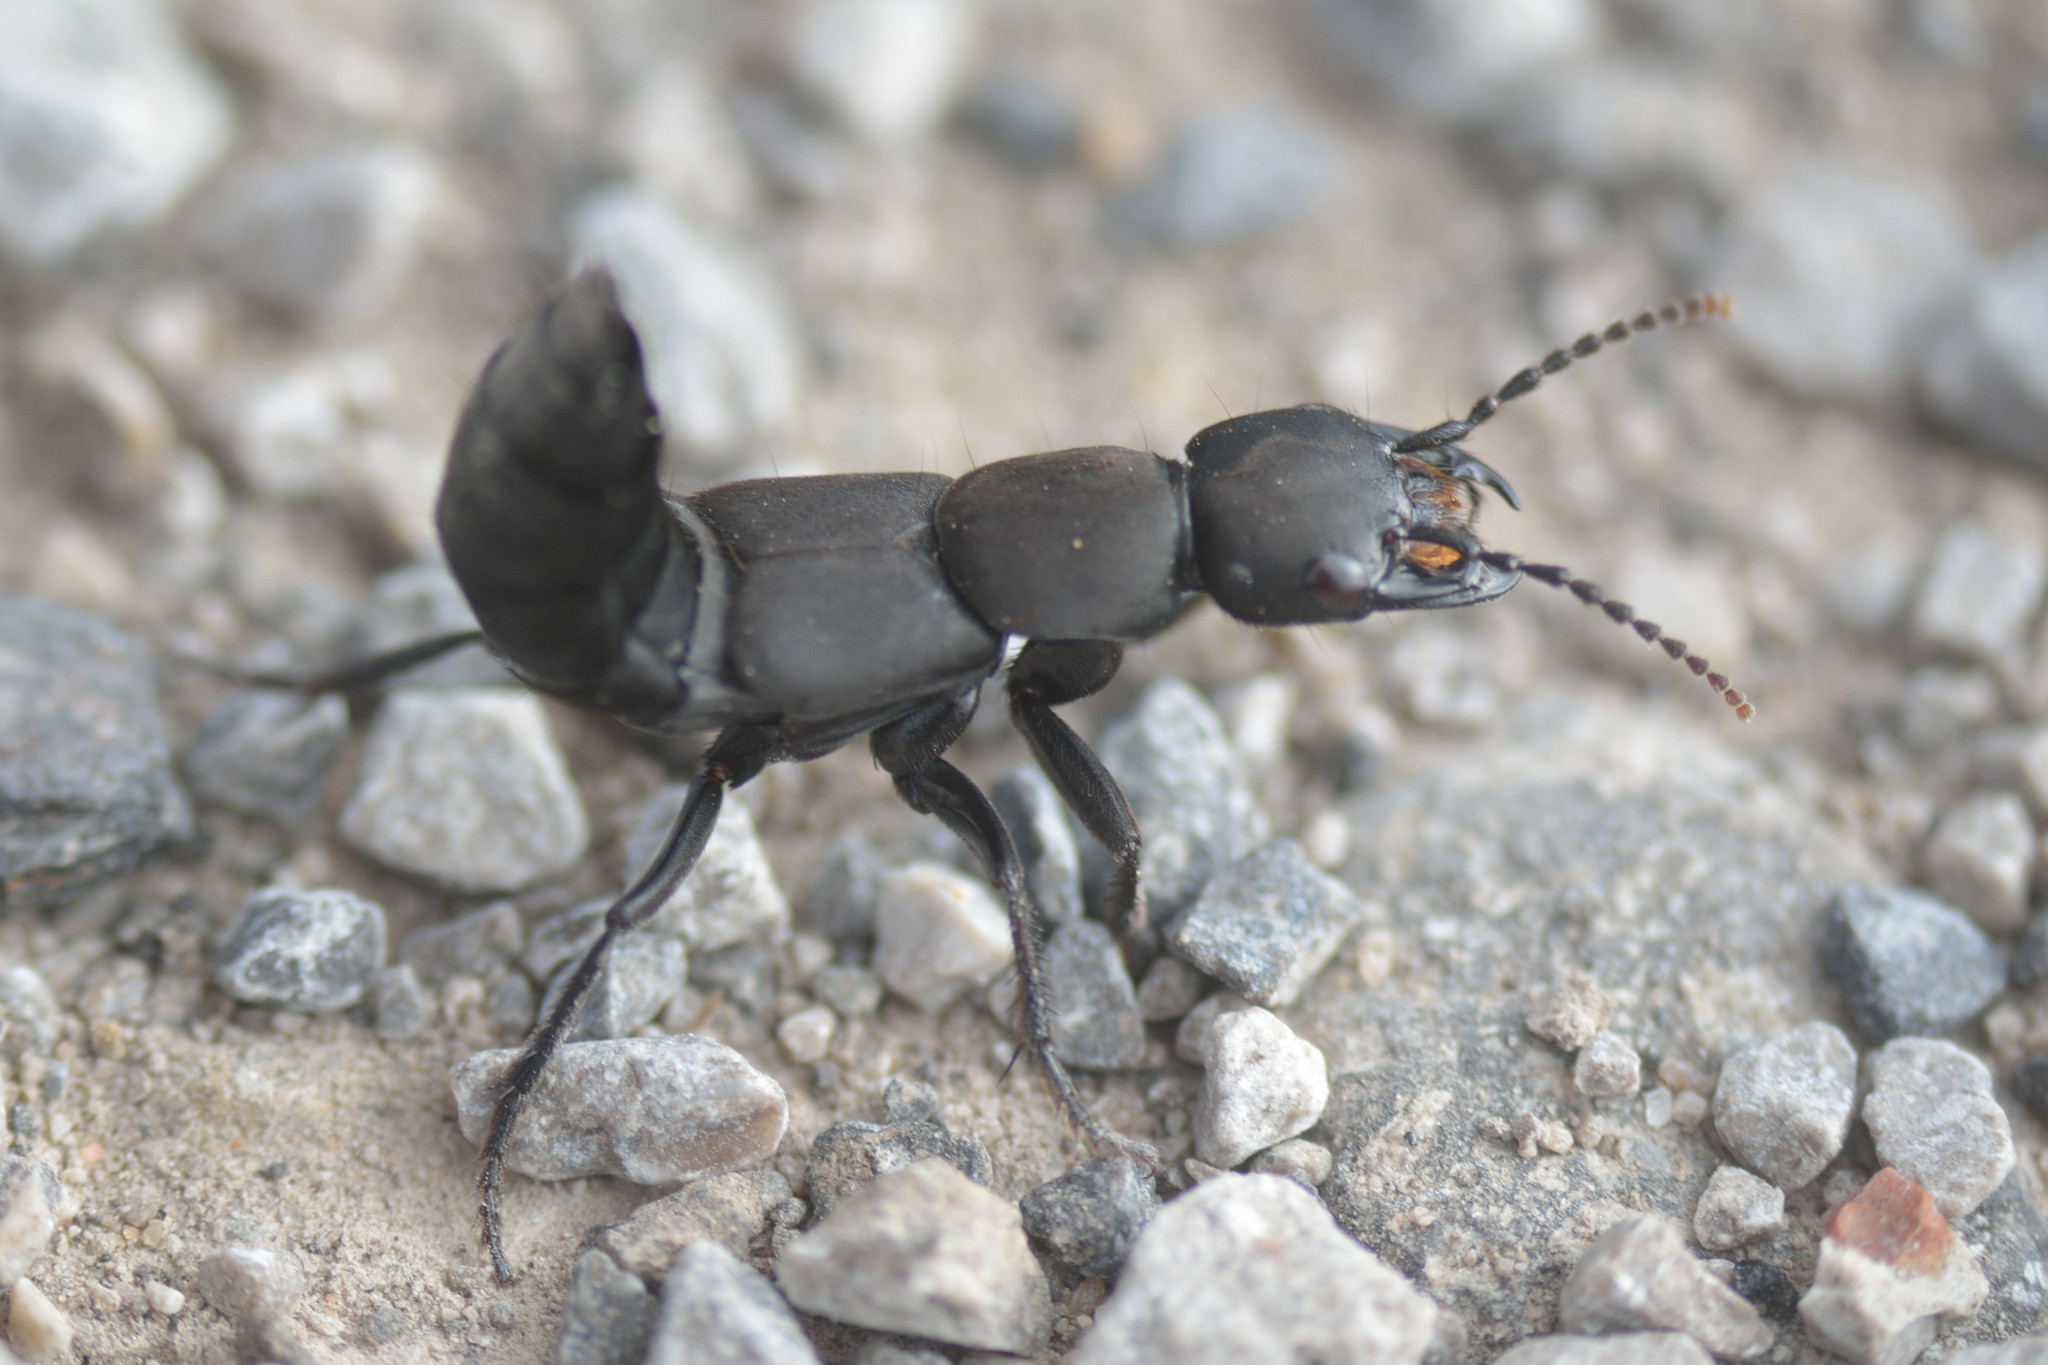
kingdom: Animalia
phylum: Arthropoda
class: Insecta
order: Coleoptera
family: Staphylinidae
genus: Ocypus
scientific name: Ocypus olens
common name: Devil's coach-horse
